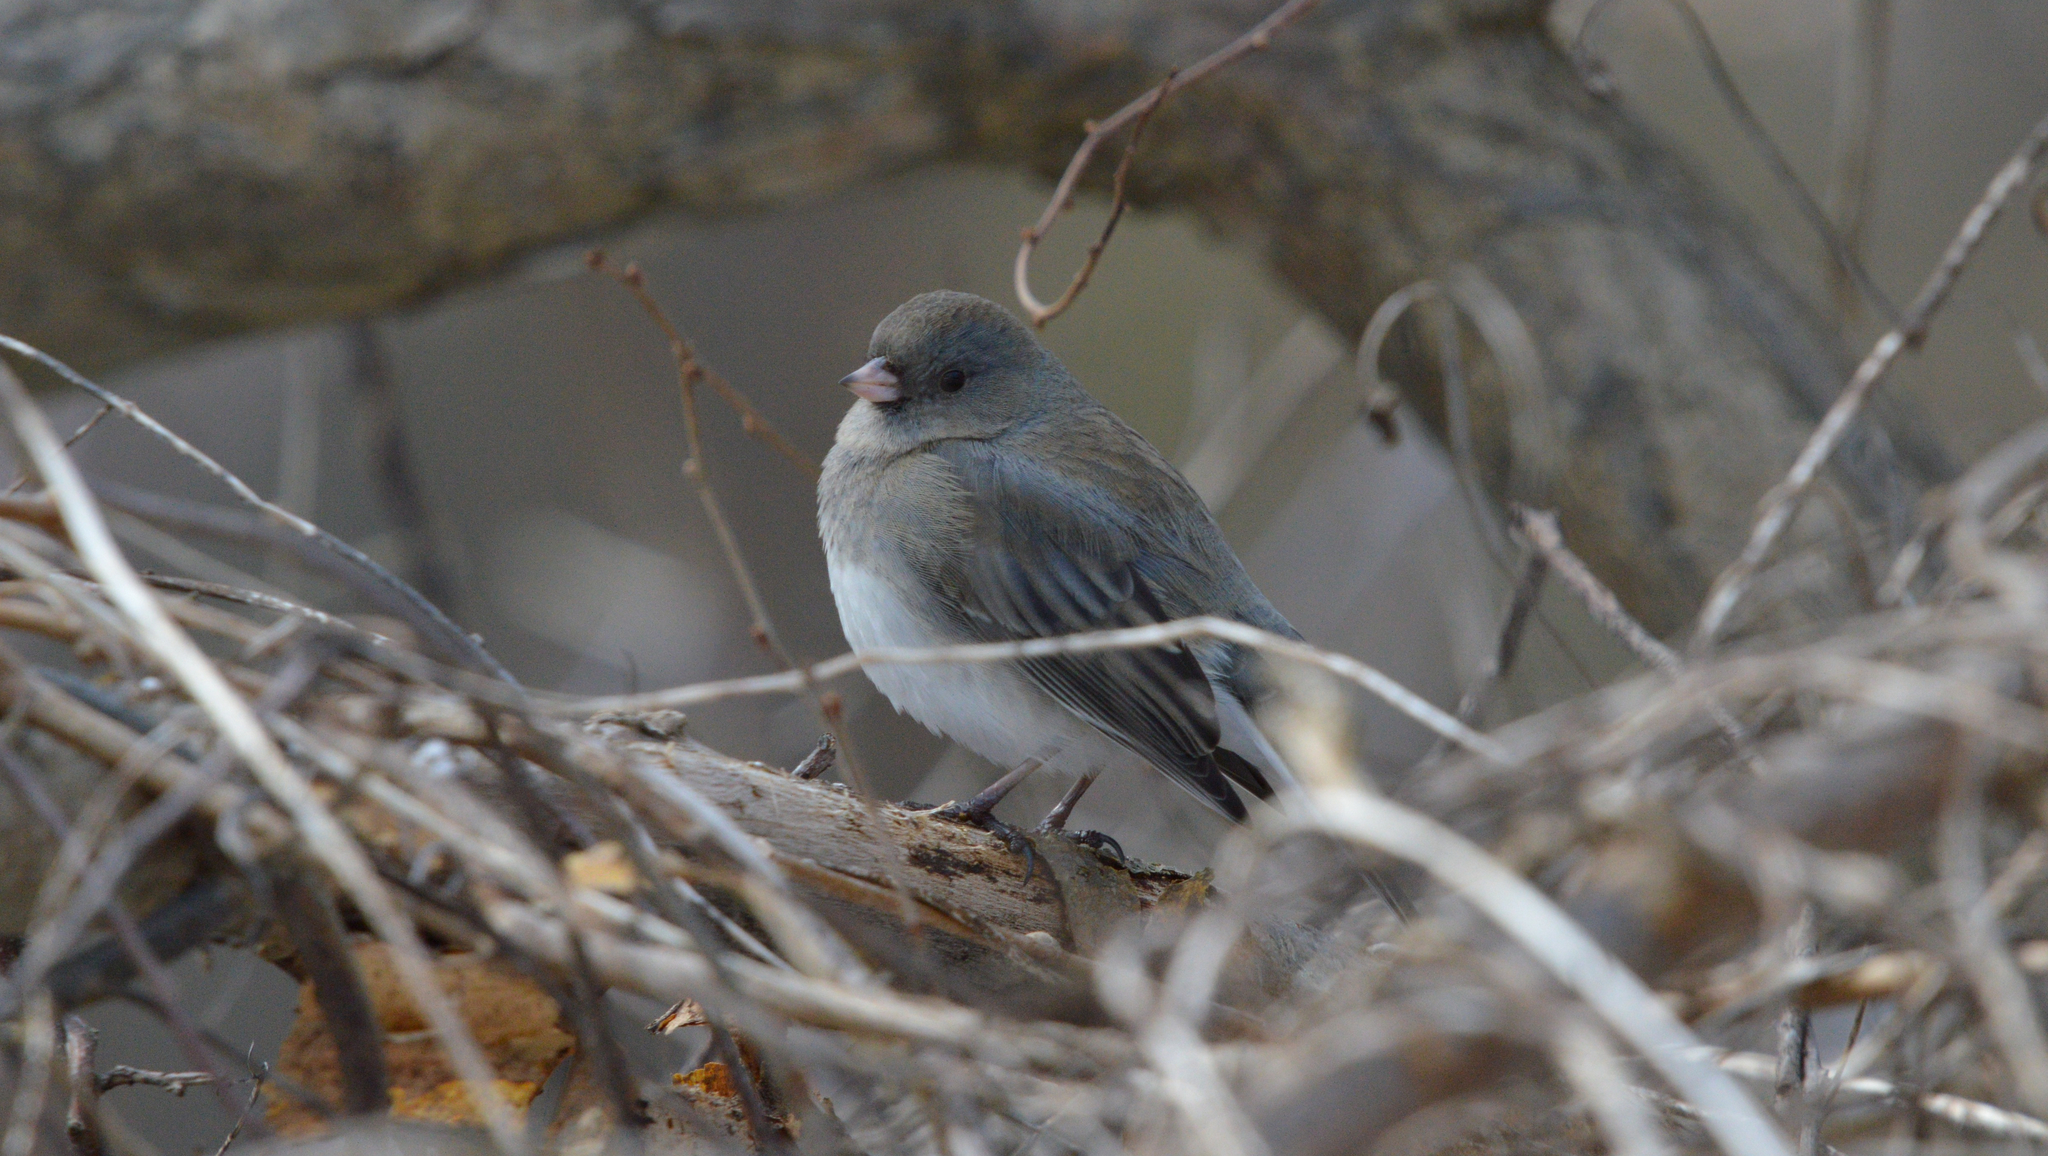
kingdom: Animalia
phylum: Chordata
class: Aves
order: Passeriformes
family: Passerellidae
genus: Junco
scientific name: Junco hyemalis
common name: Dark-eyed junco
